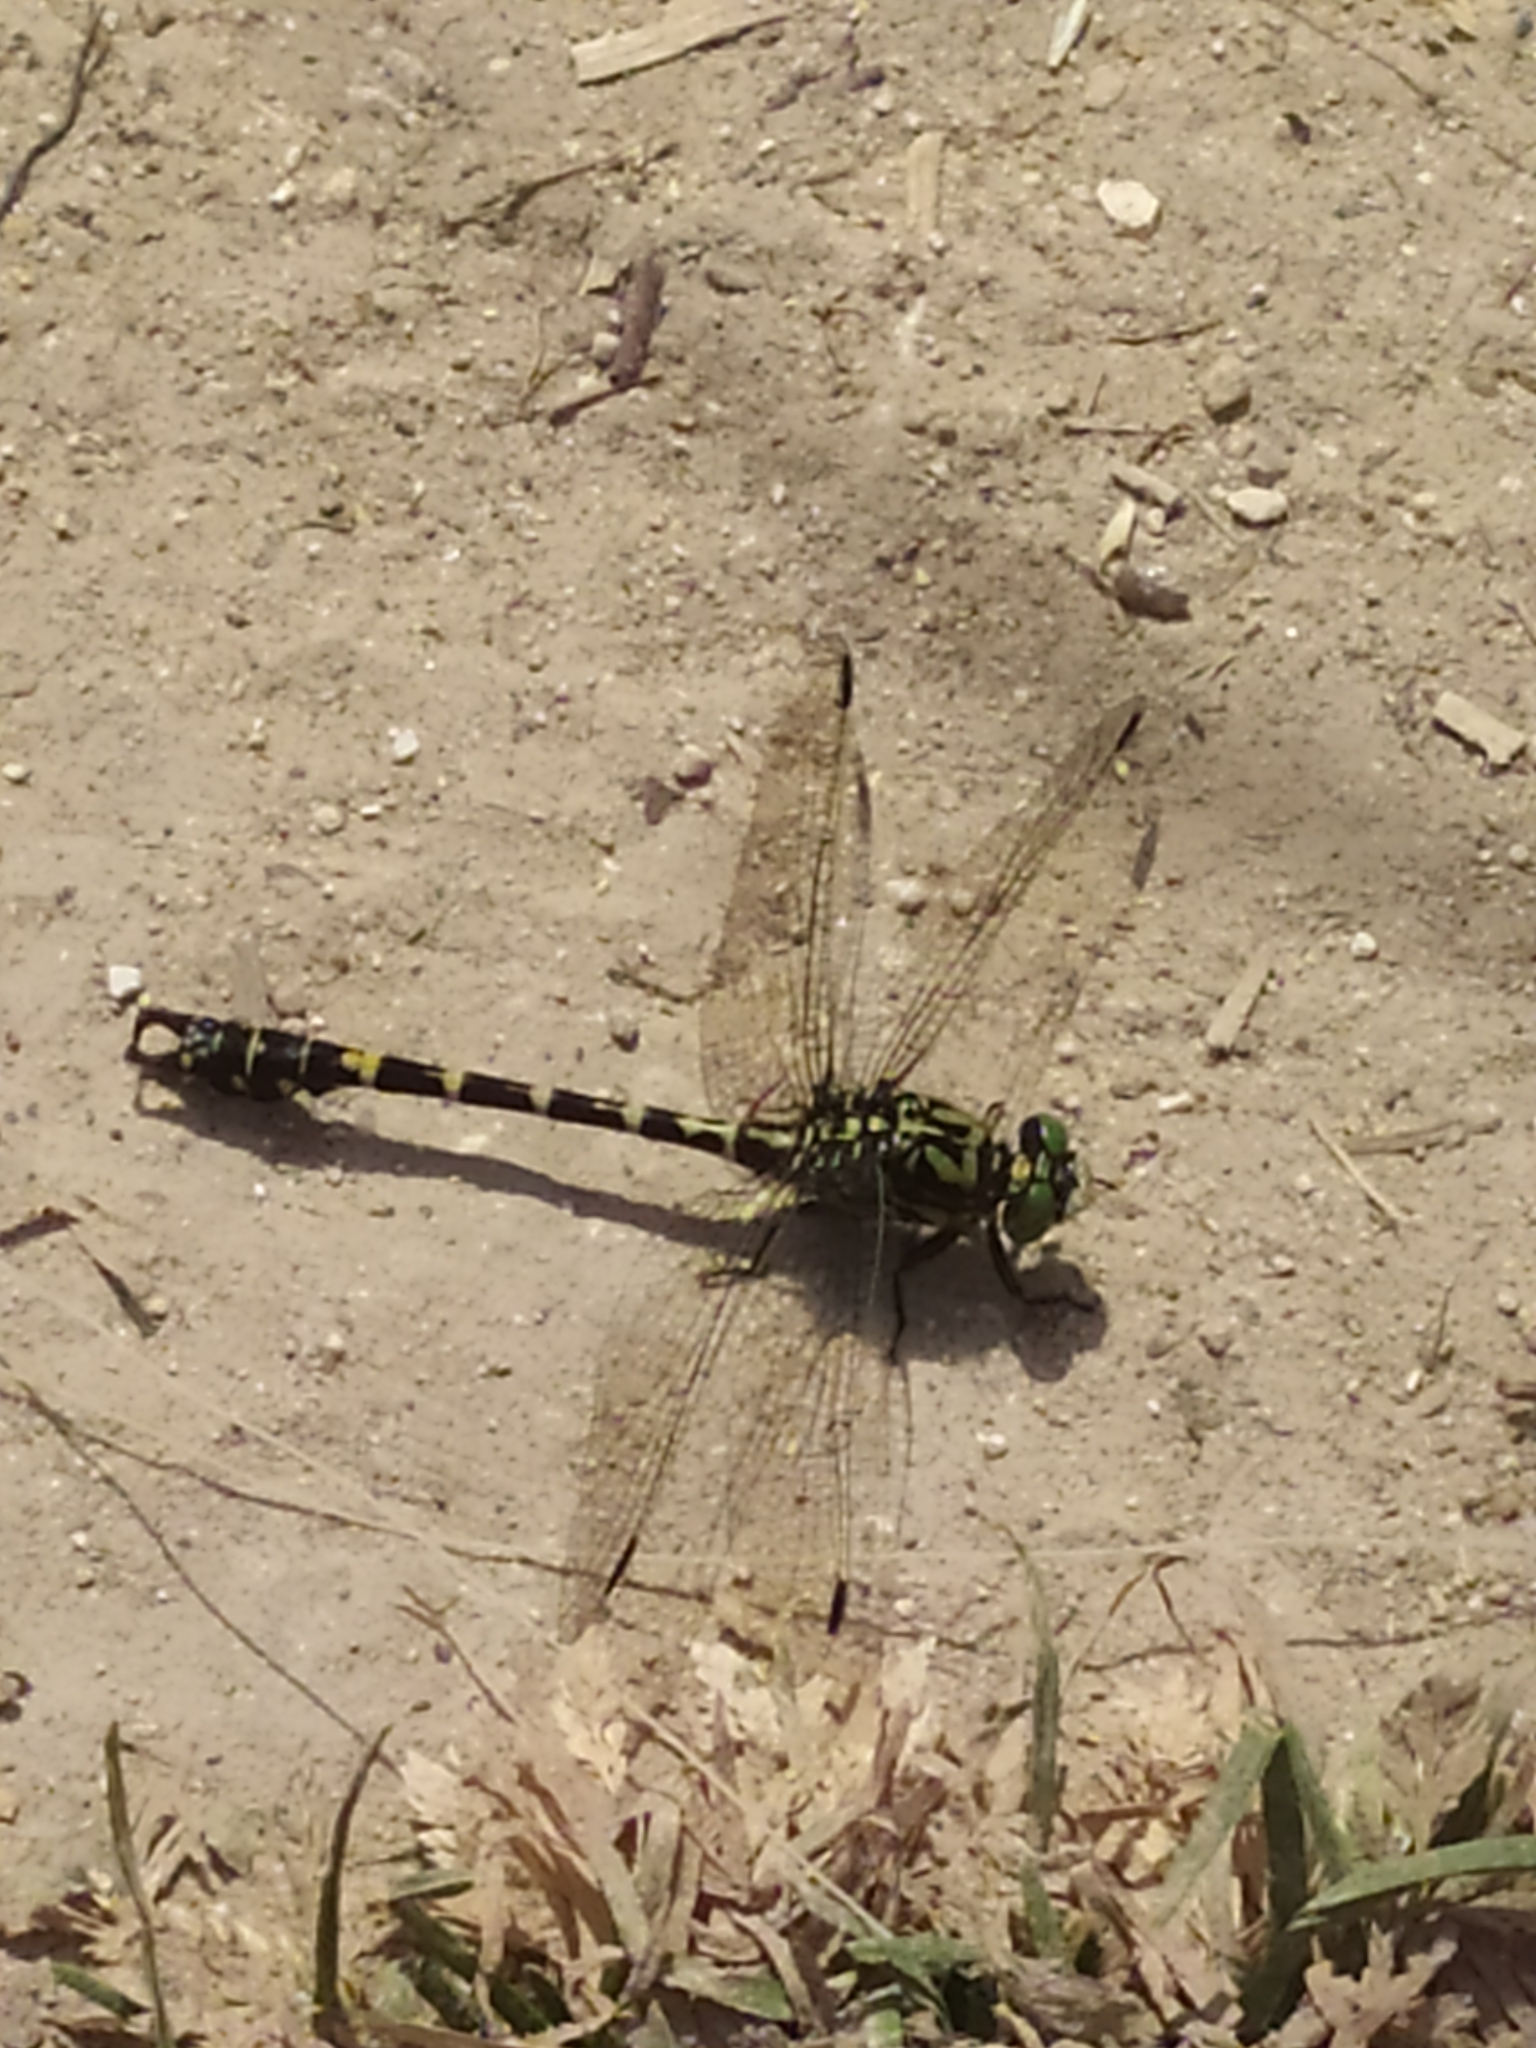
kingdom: Animalia
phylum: Arthropoda
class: Insecta
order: Odonata
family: Gomphidae
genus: Onychogomphus
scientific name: Onychogomphus forcipatus
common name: Small pincertail
